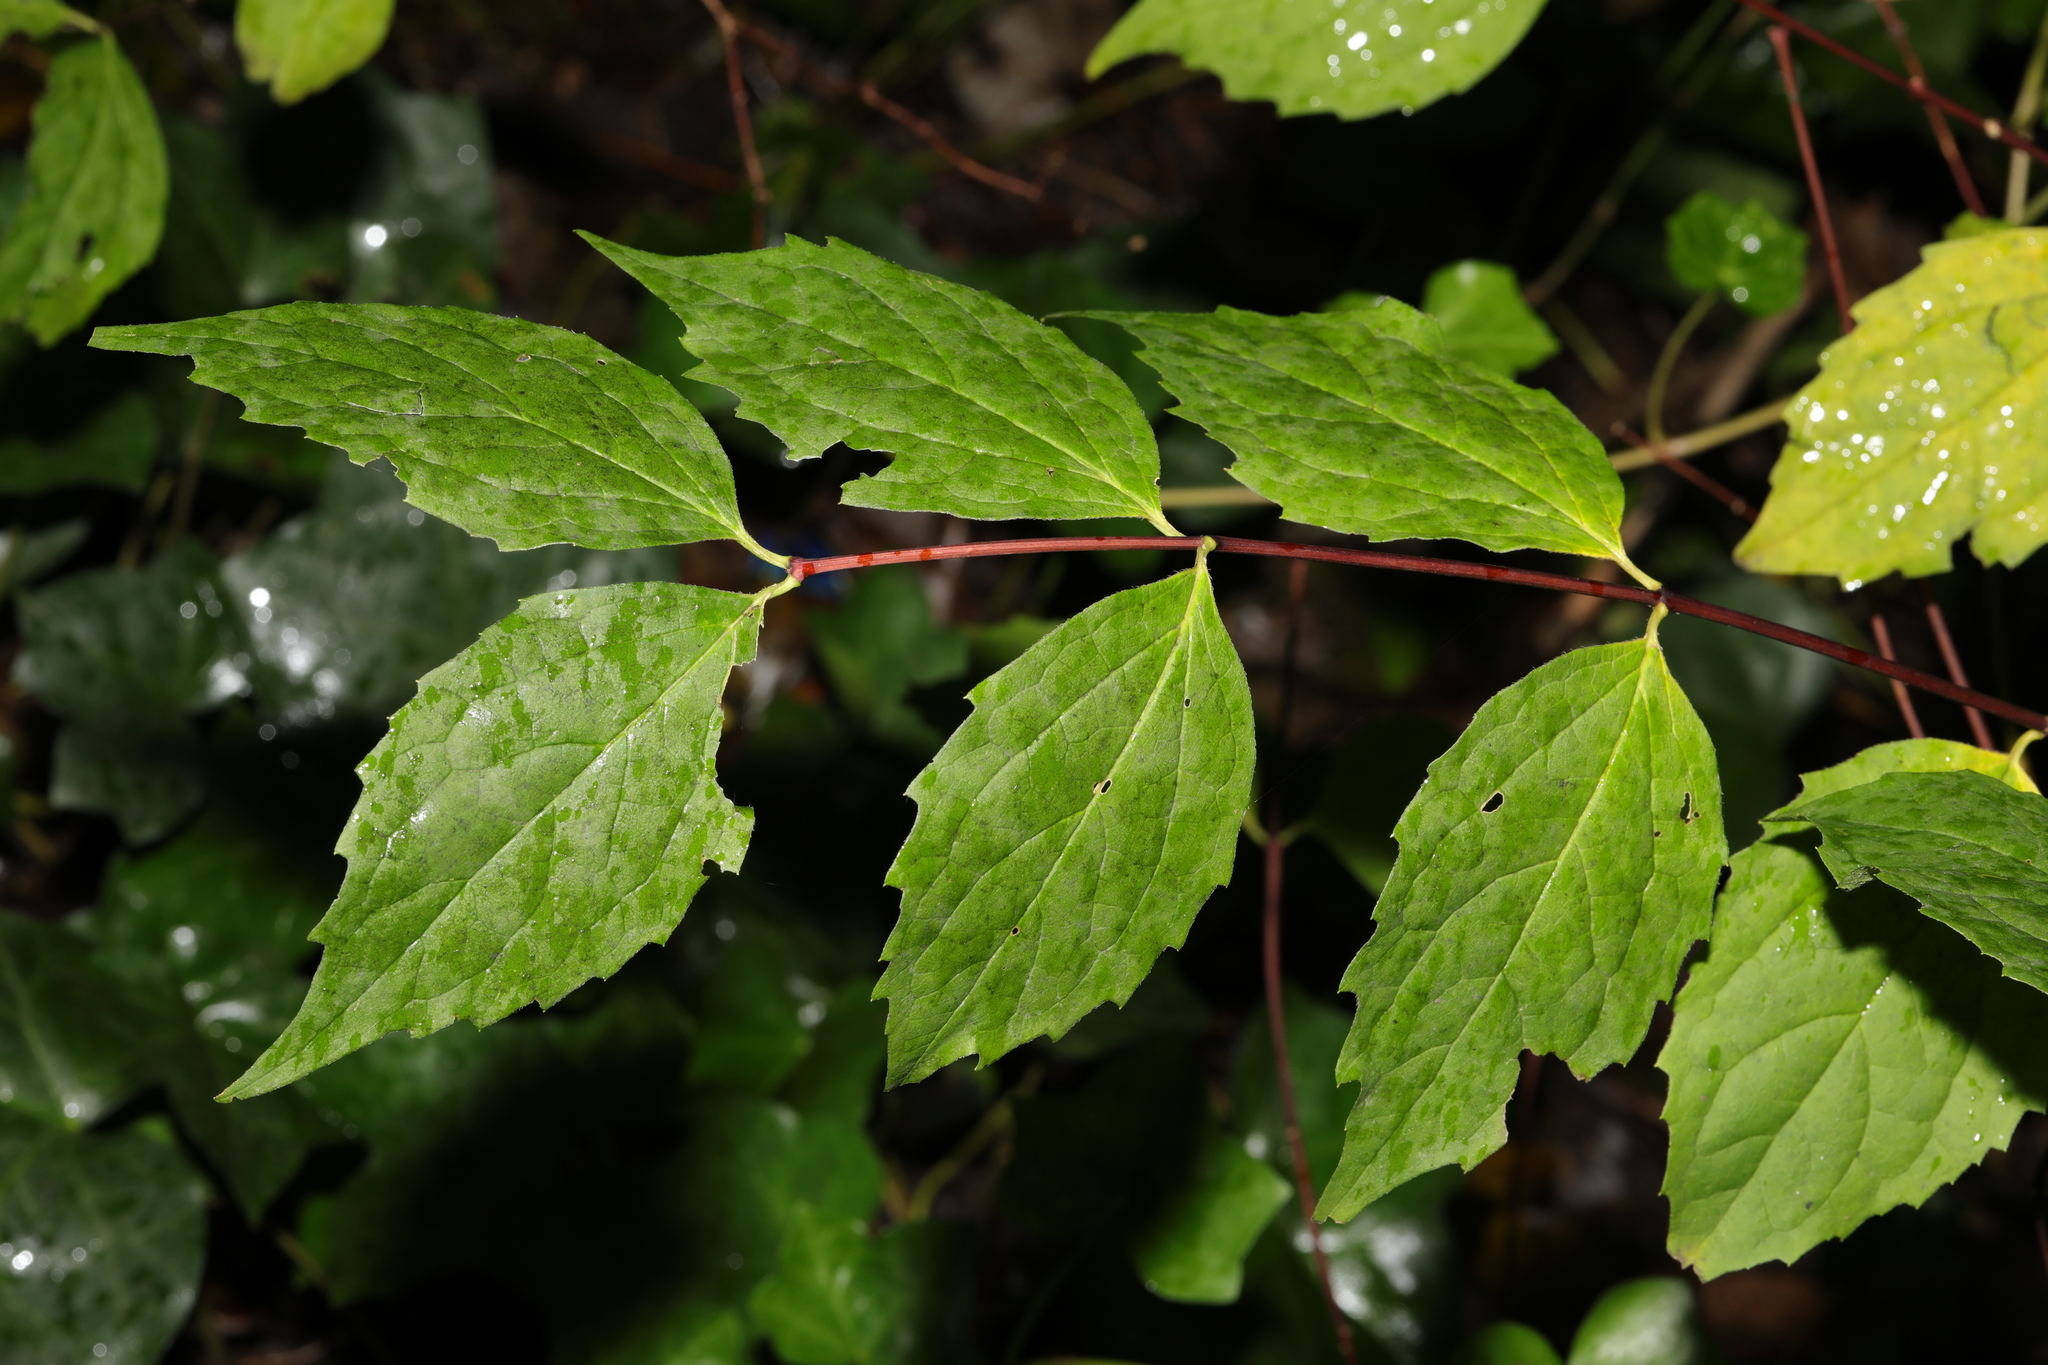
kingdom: Plantae
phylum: Tracheophyta
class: Magnoliopsida
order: Cornales
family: Hydrangeaceae
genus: Philadelphus
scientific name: Philadelphus coronarius
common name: Mock orange
